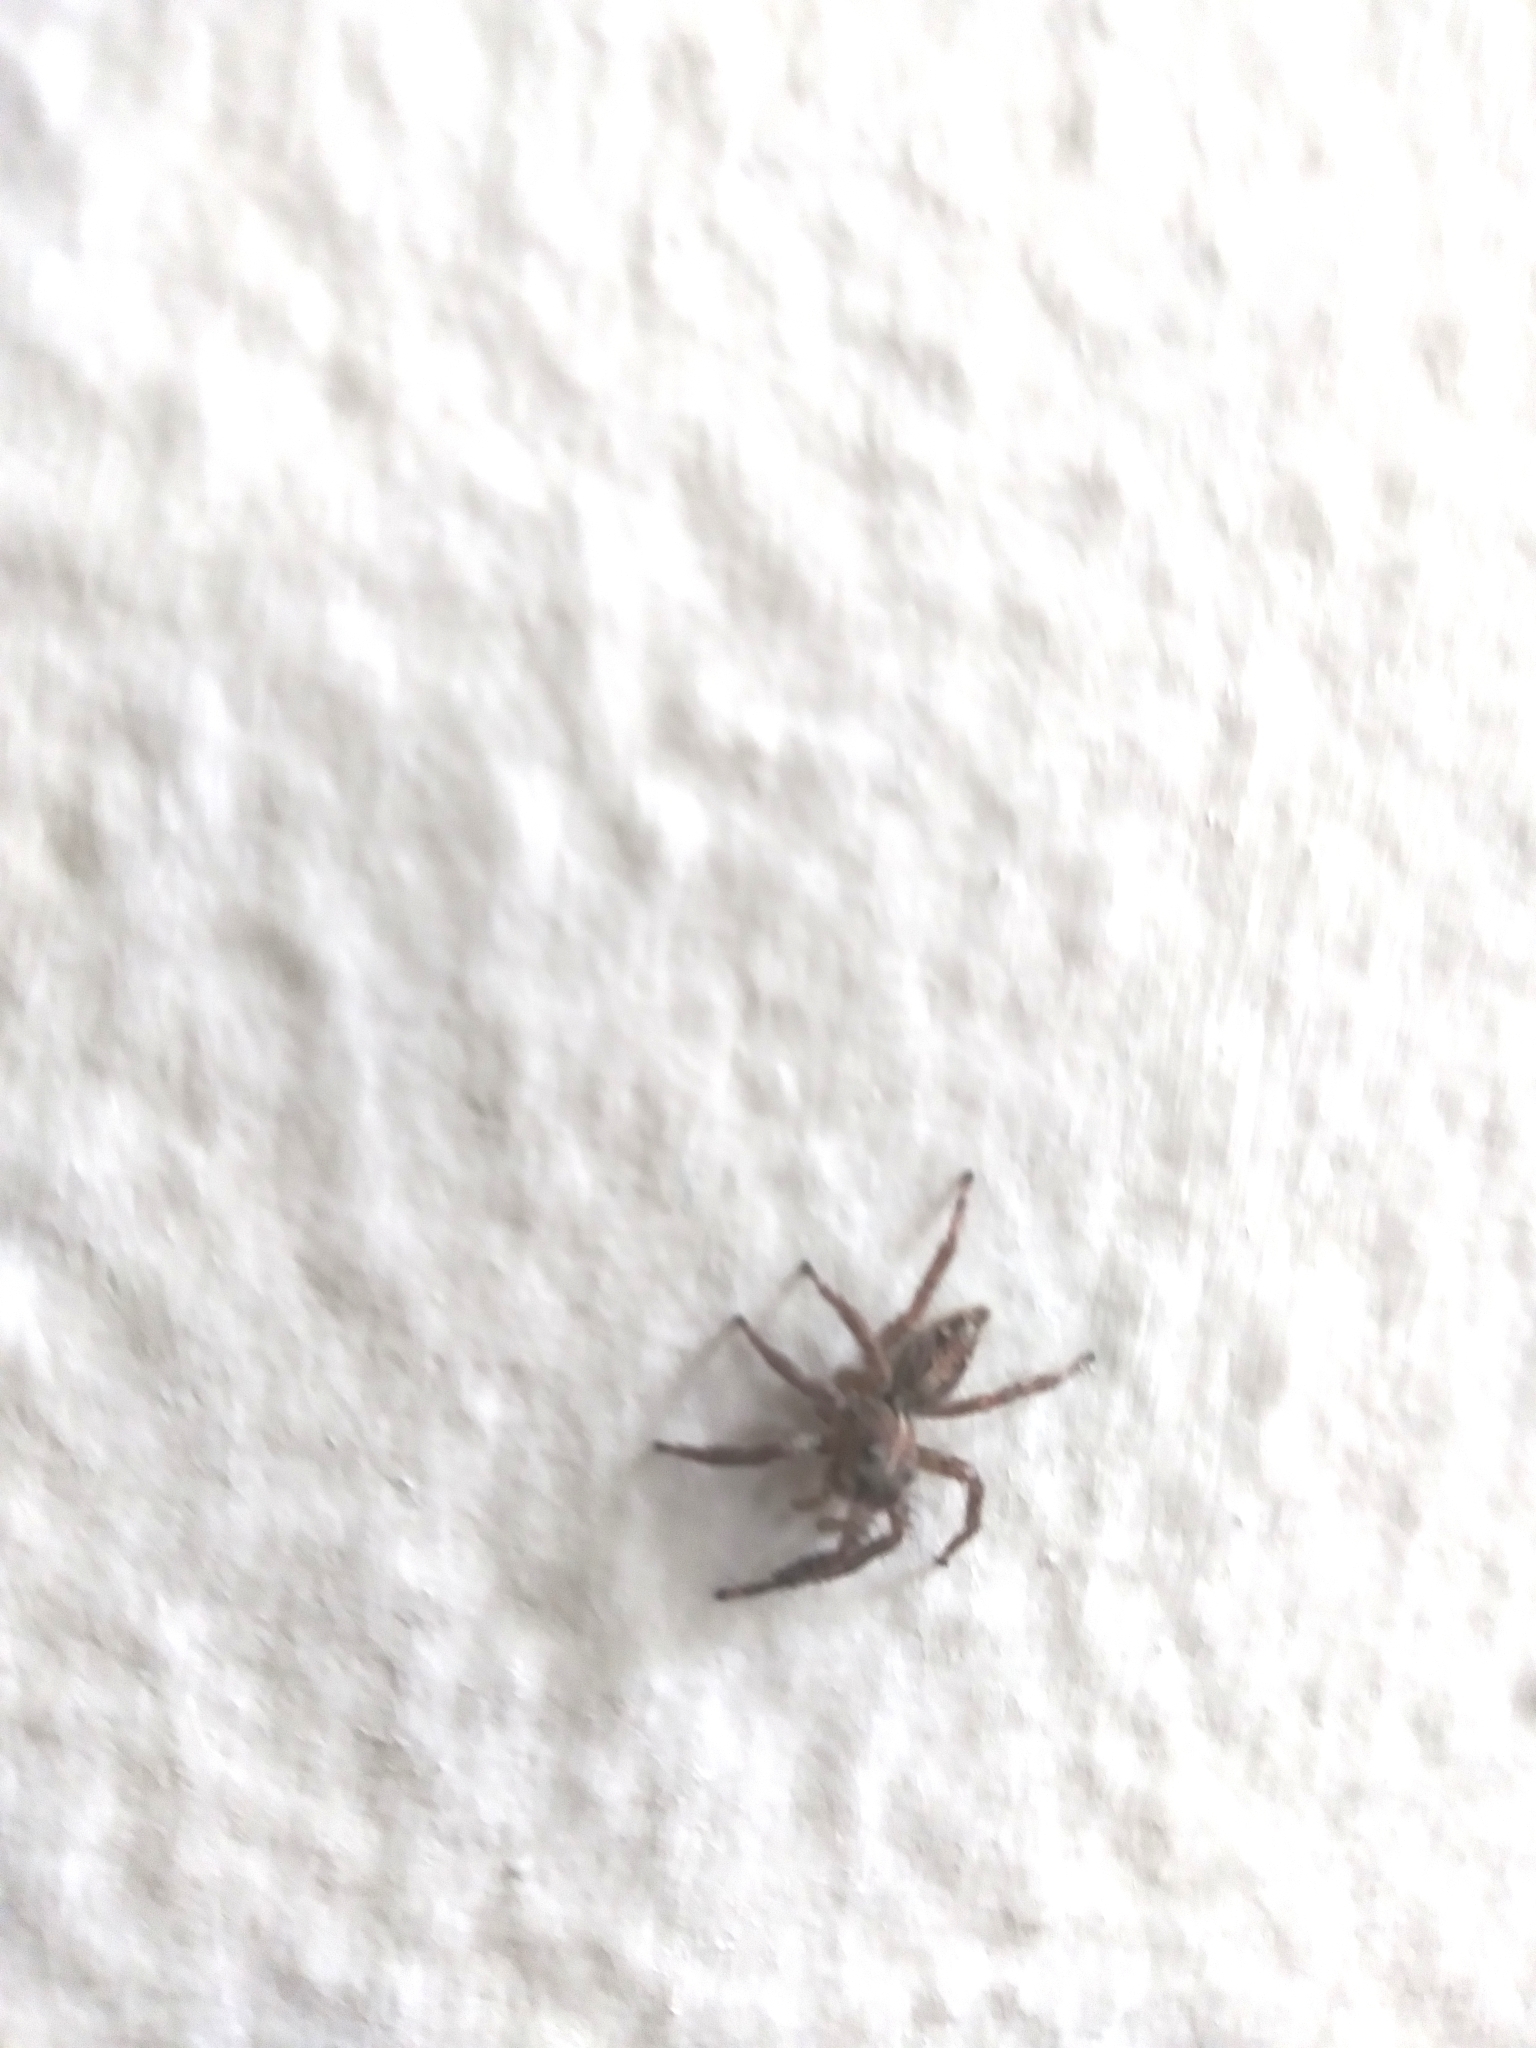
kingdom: Animalia
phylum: Arthropoda
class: Arachnida
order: Araneae
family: Salticidae
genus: Plexippus
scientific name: Plexippus paykulli
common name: Pantropical jumper
